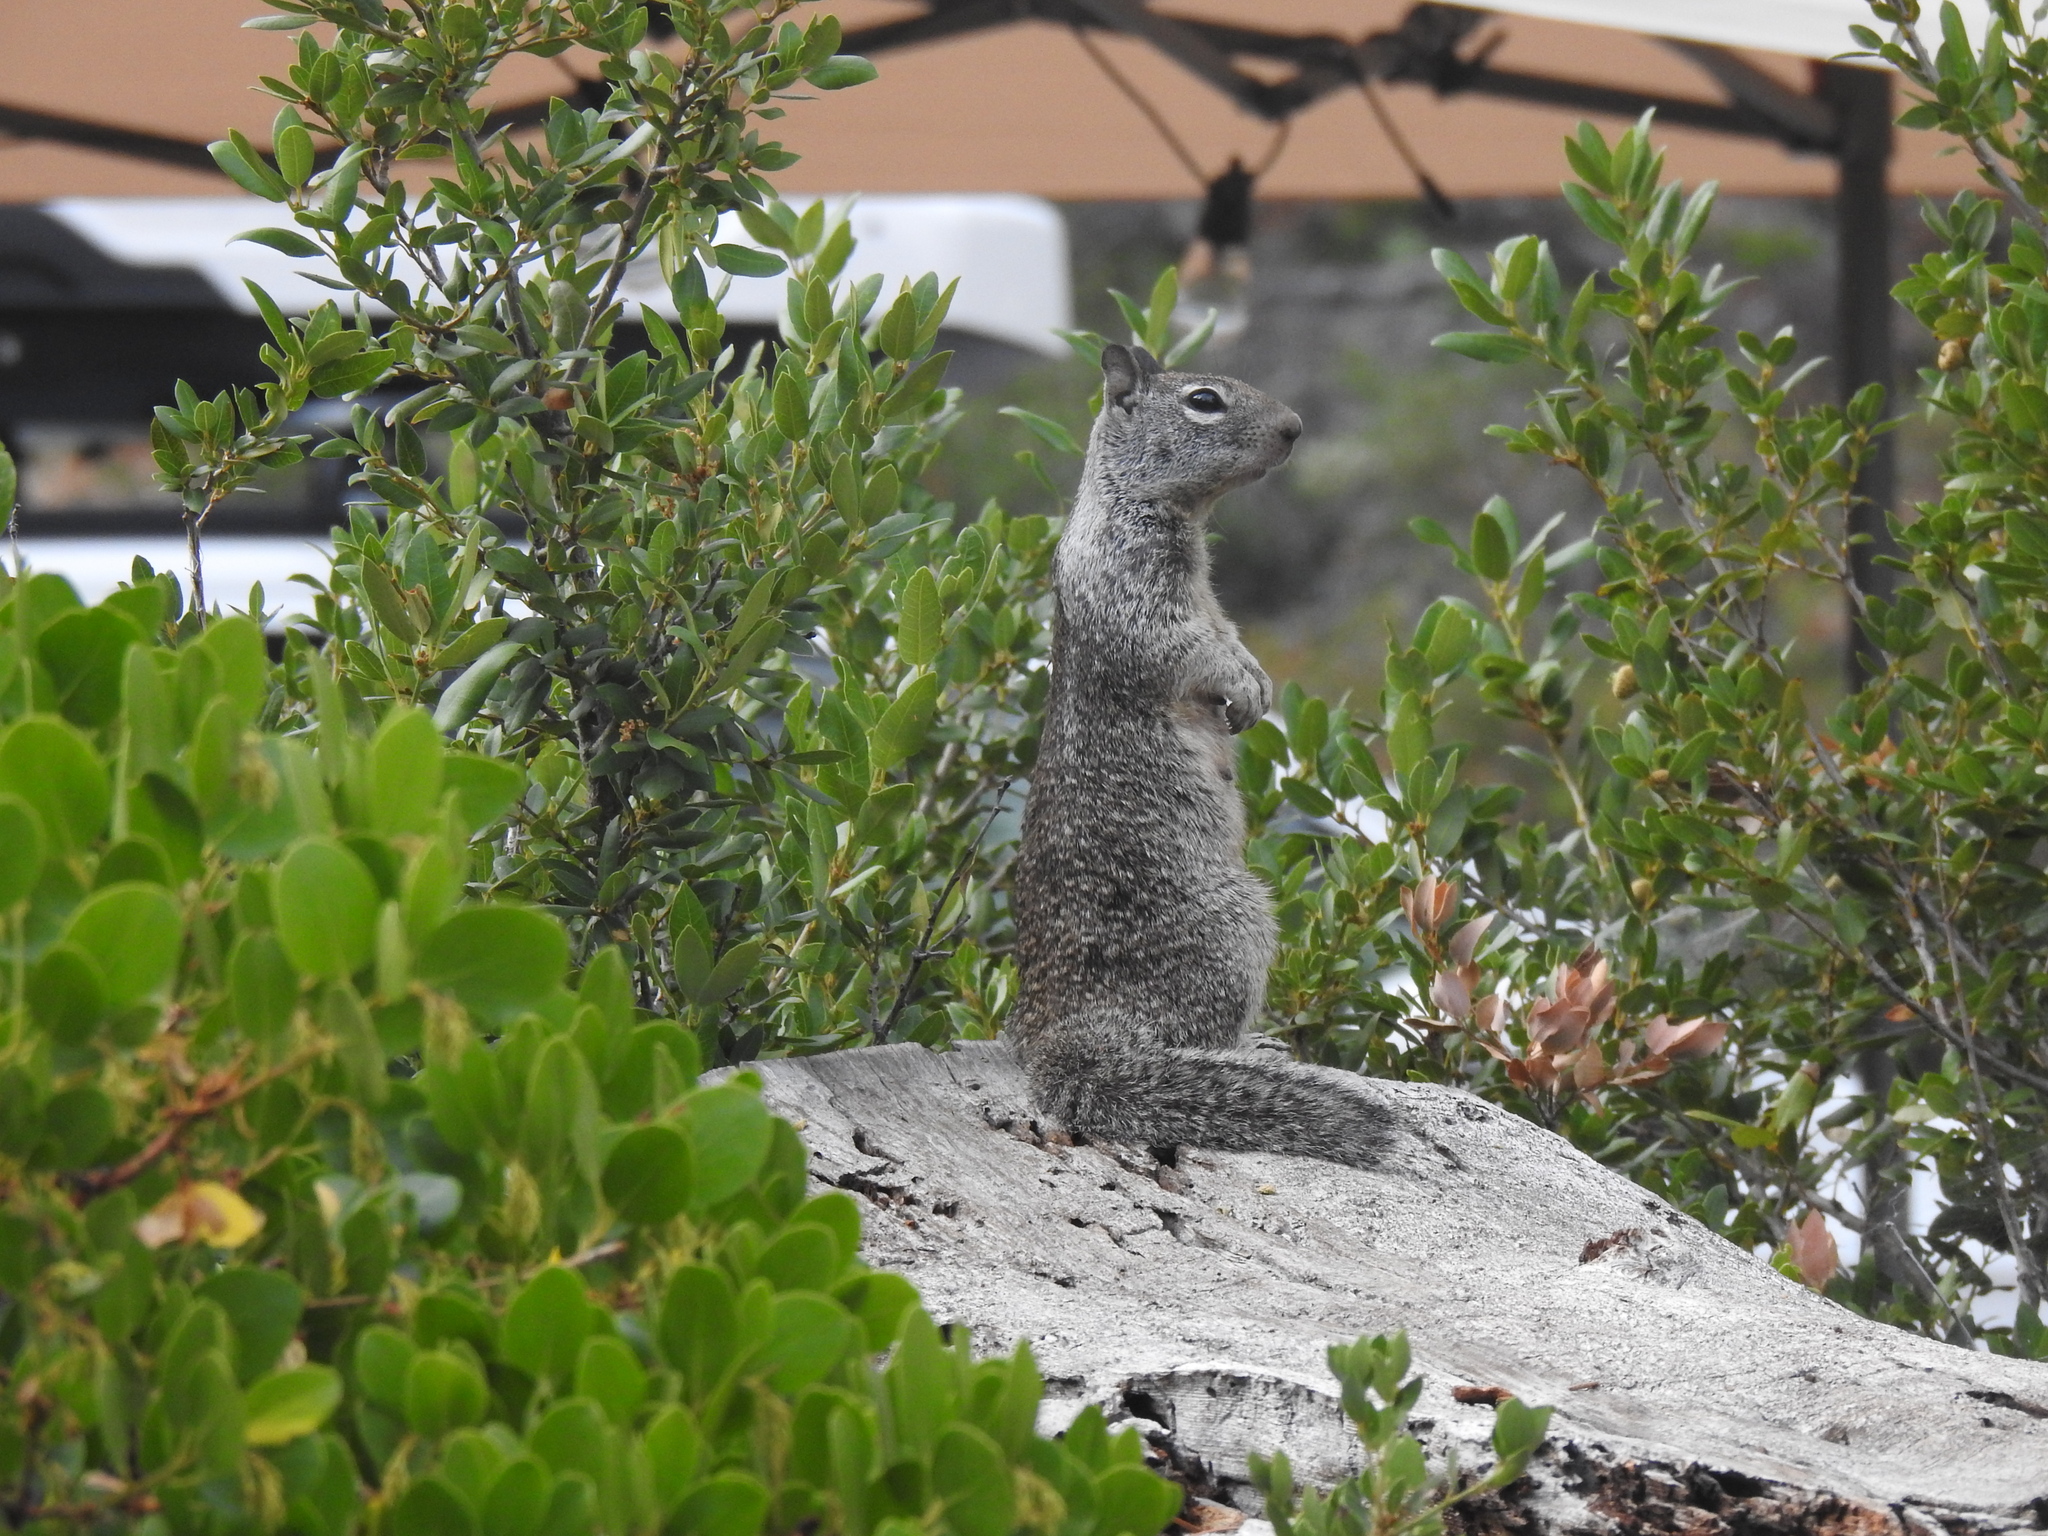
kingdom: Animalia
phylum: Chordata
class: Mammalia
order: Rodentia
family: Sciuridae
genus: Otospermophilus
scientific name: Otospermophilus beecheyi
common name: California ground squirrel
